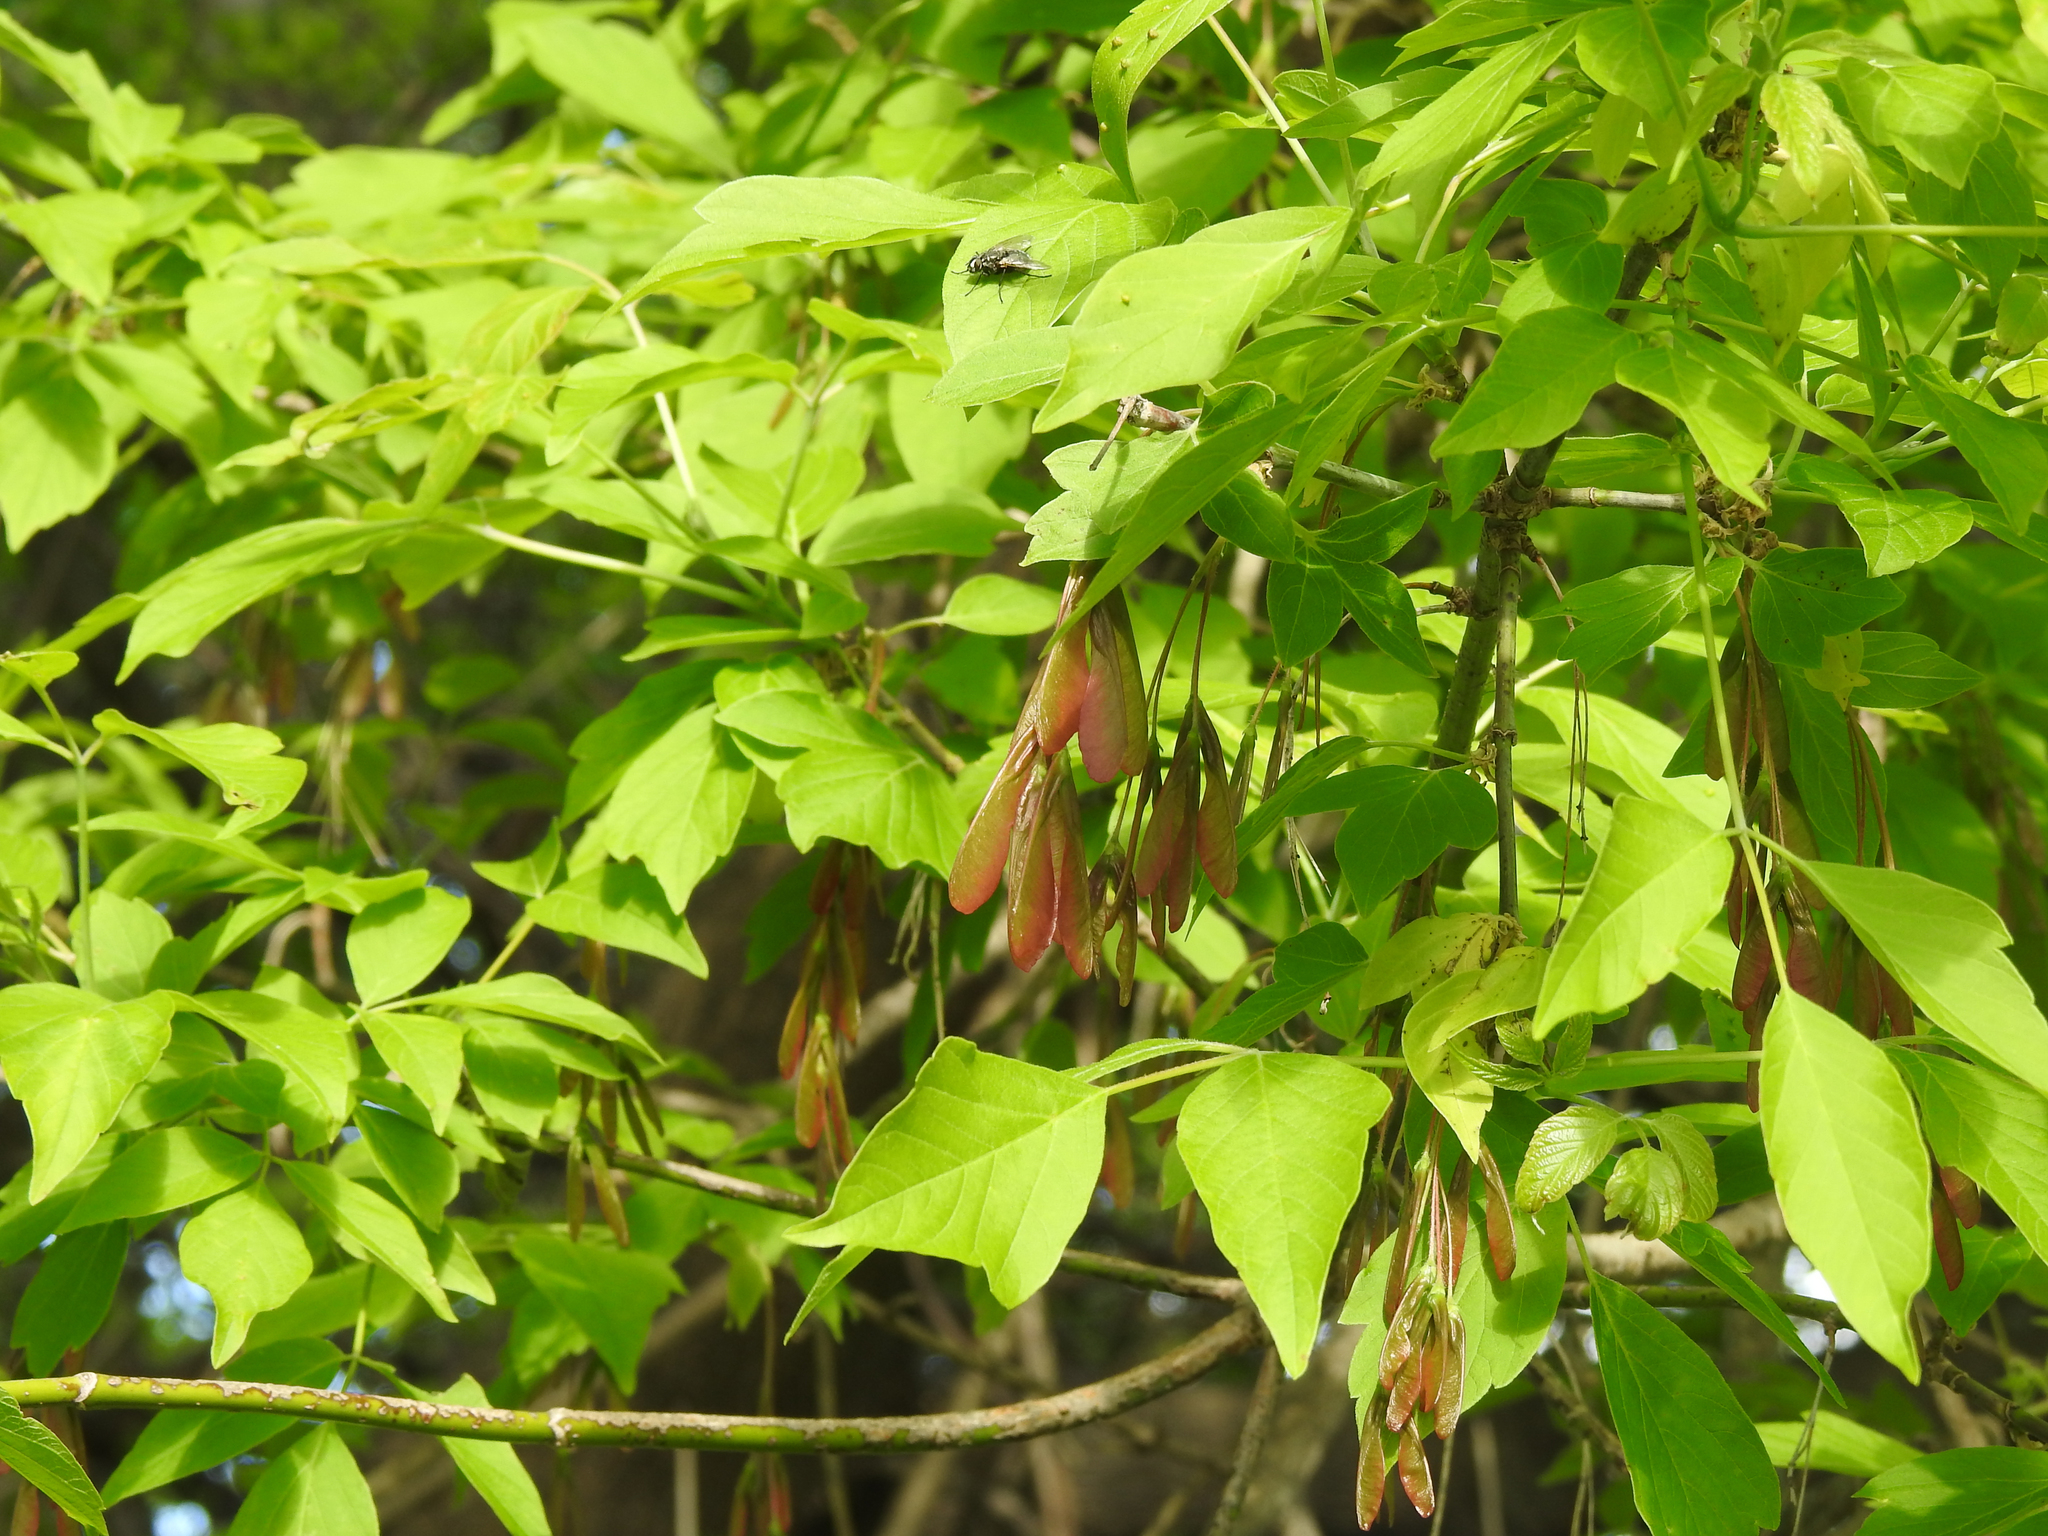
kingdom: Plantae
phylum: Tracheophyta
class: Magnoliopsida
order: Sapindales
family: Sapindaceae
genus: Acer
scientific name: Acer negundo
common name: Ashleaf maple
